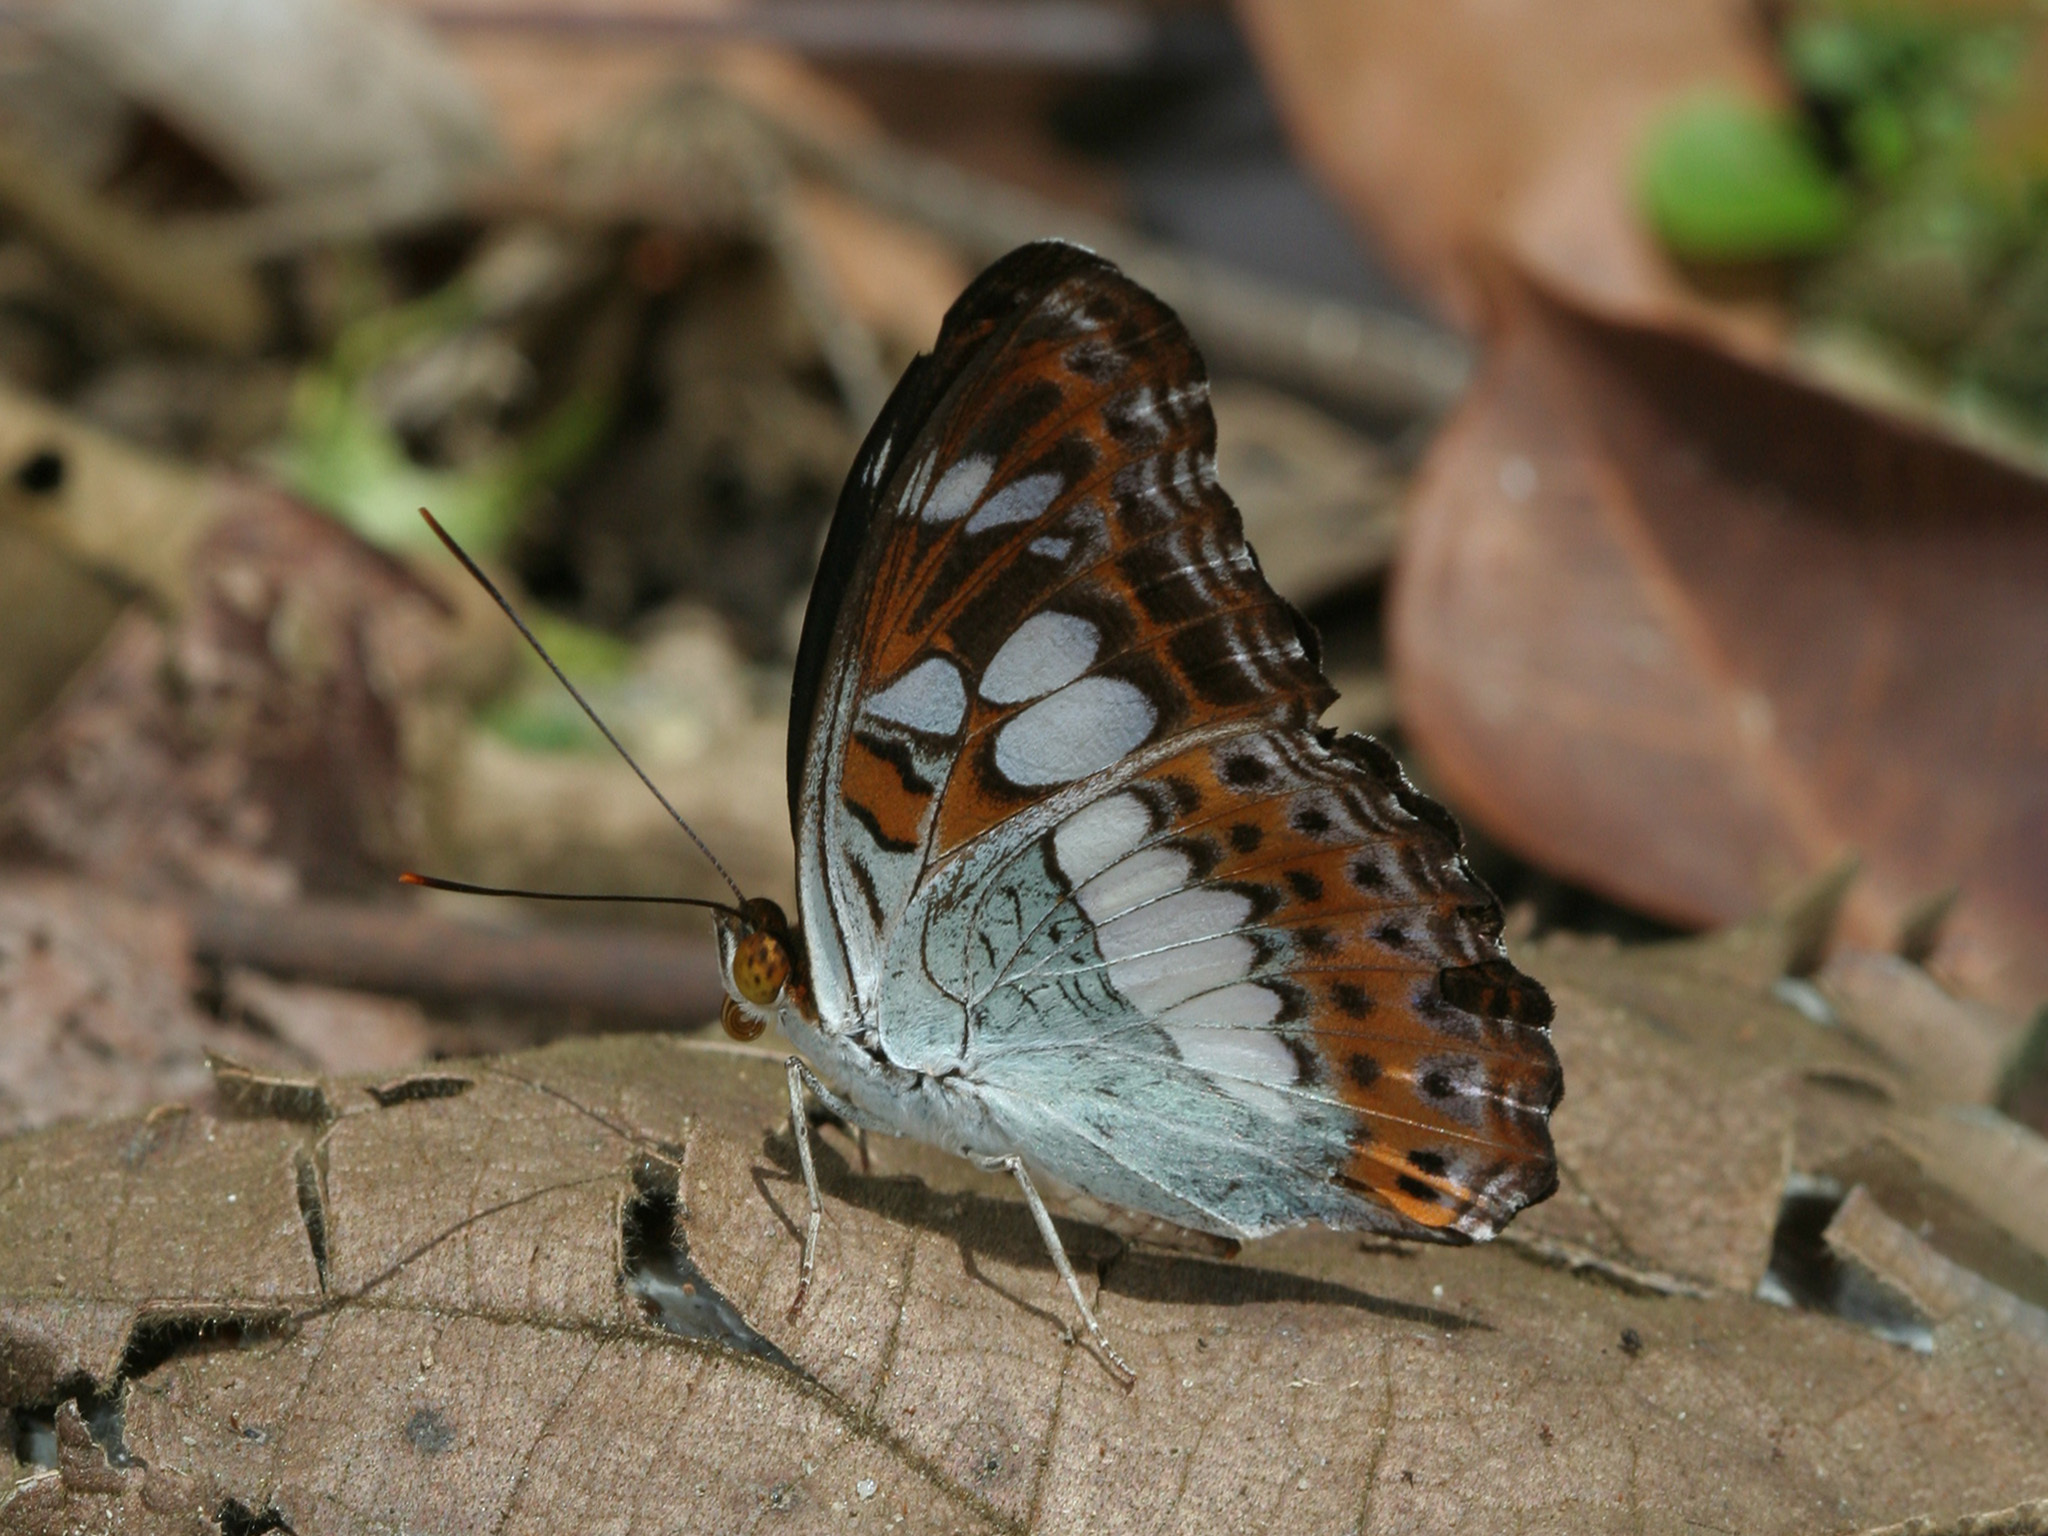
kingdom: Animalia
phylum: Arthropoda
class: Insecta
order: Lepidoptera
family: Nymphalidae
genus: Limenitis
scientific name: Limenitis Moduza procris
